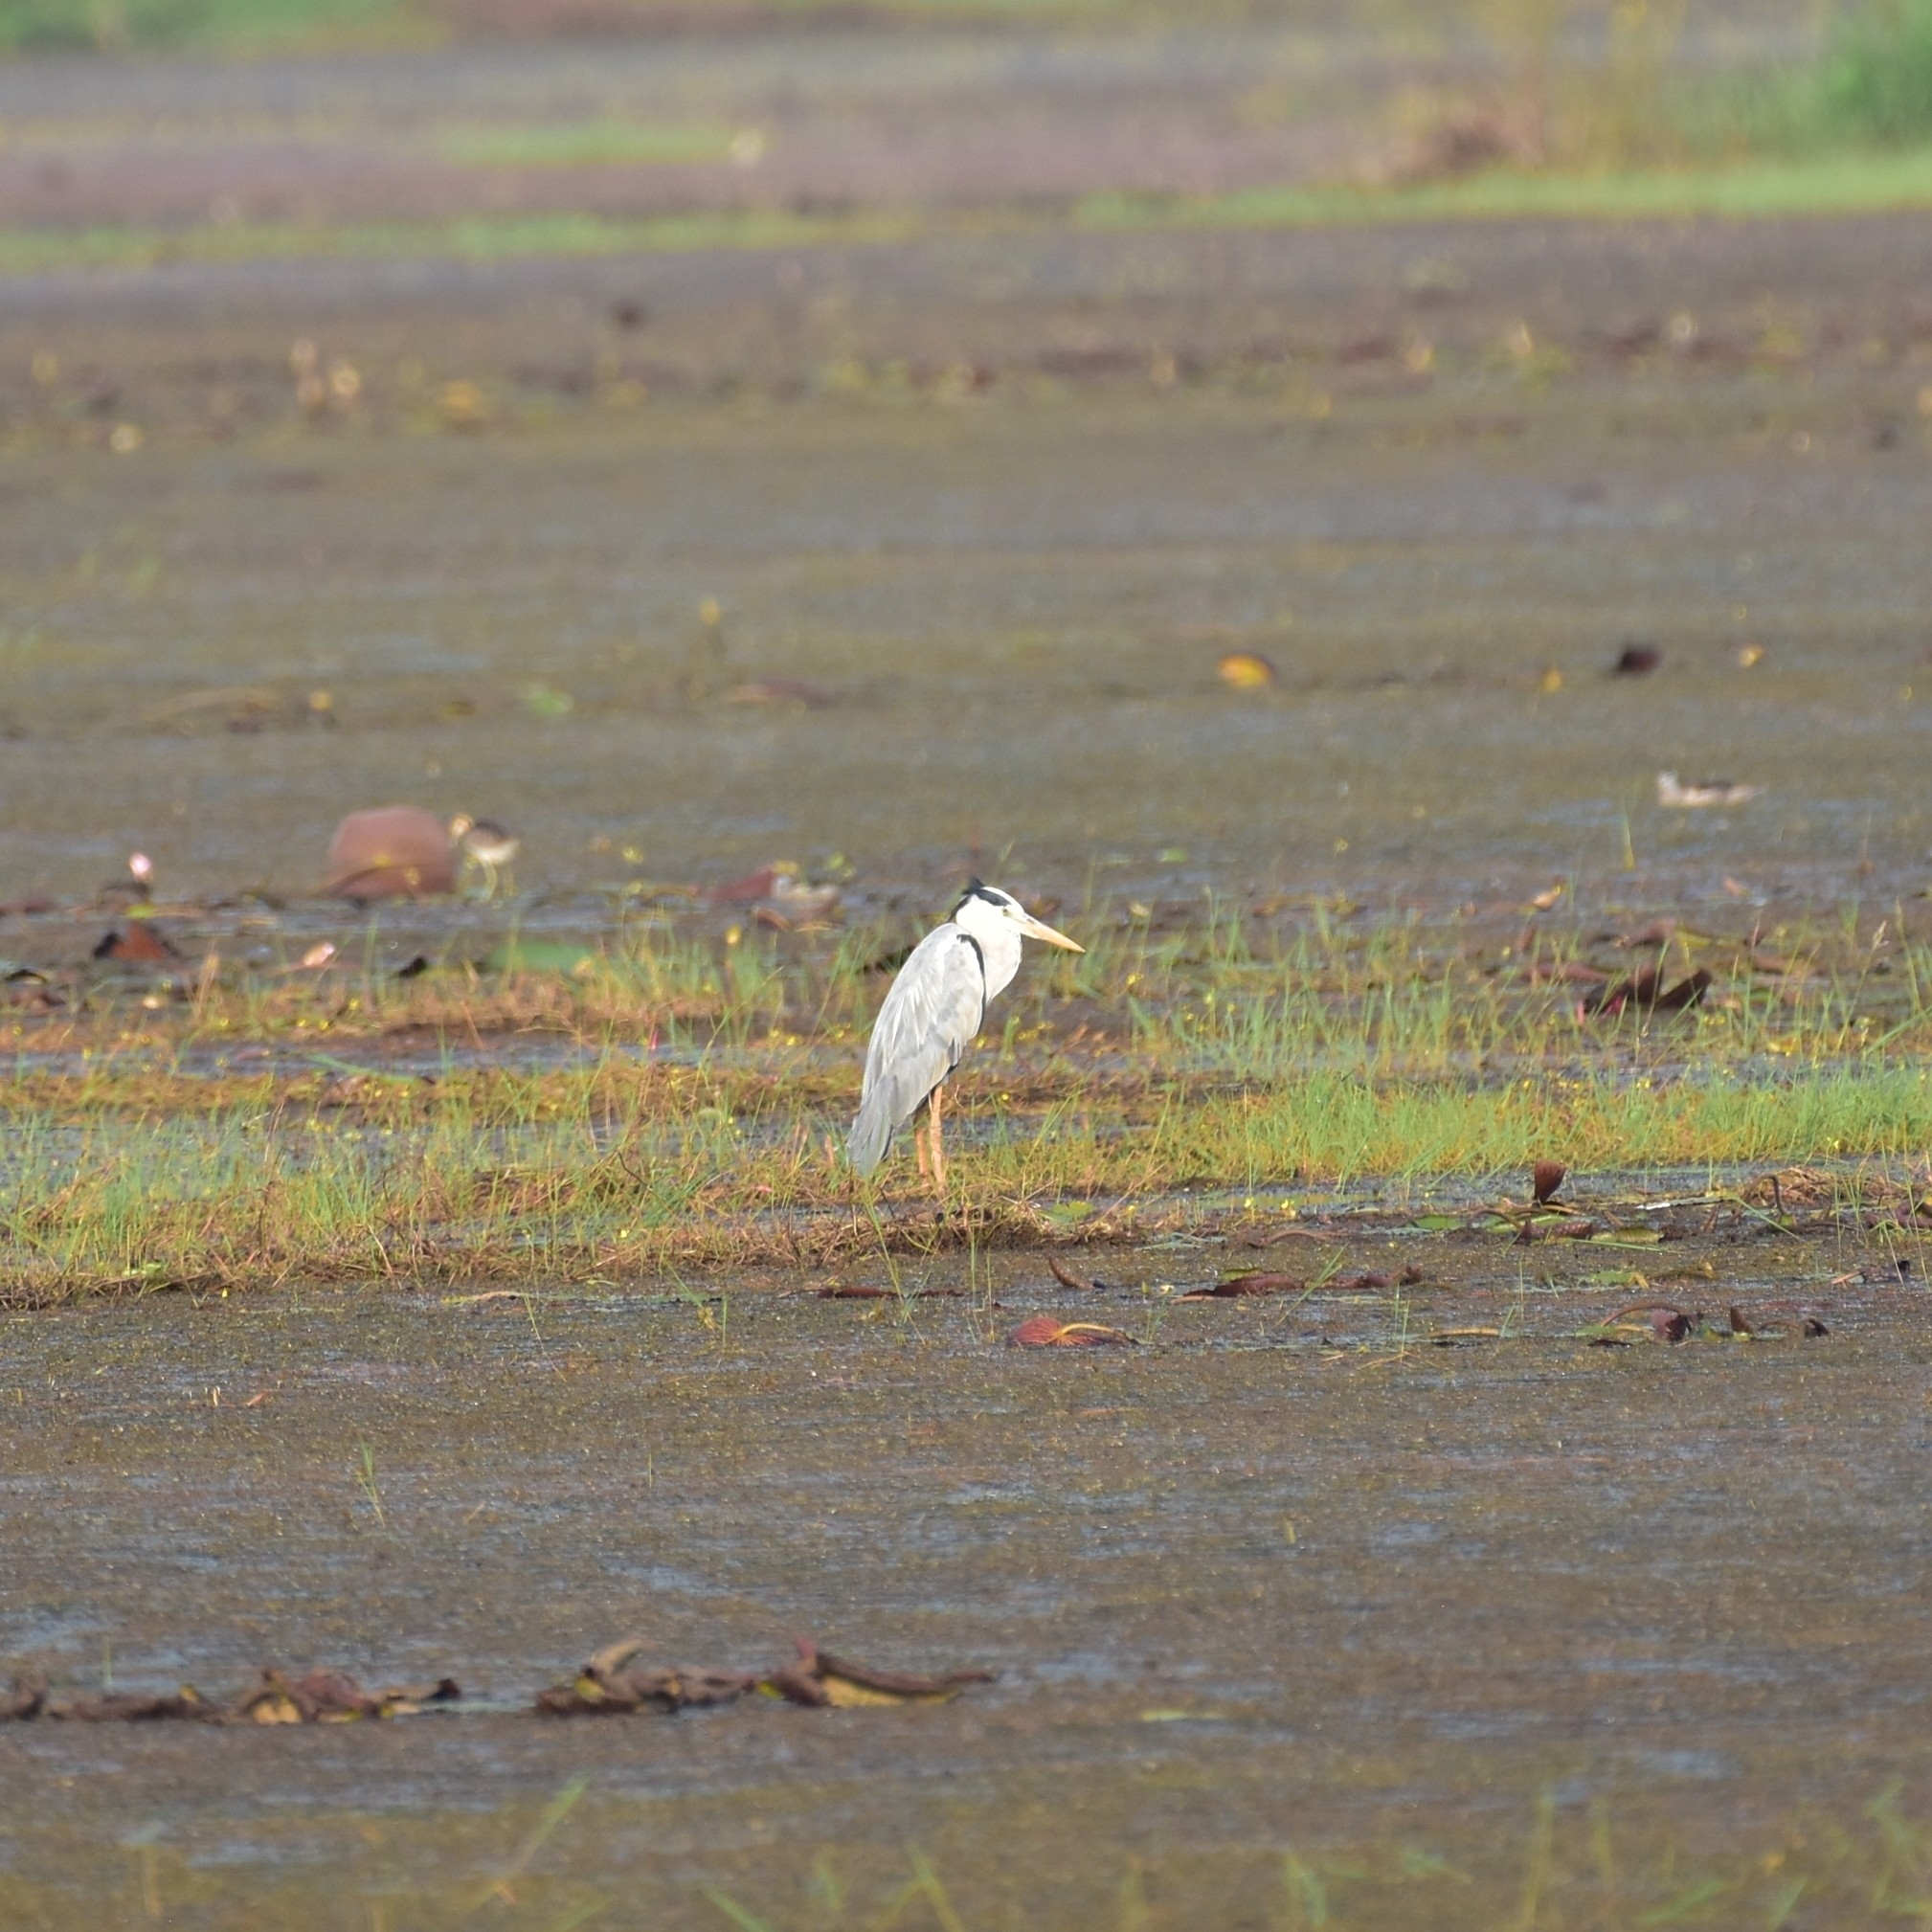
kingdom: Animalia
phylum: Chordata
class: Aves
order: Pelecaniformes
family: Ardeidae
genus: Ardea
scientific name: Ardea cinerea
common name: Grey heron
